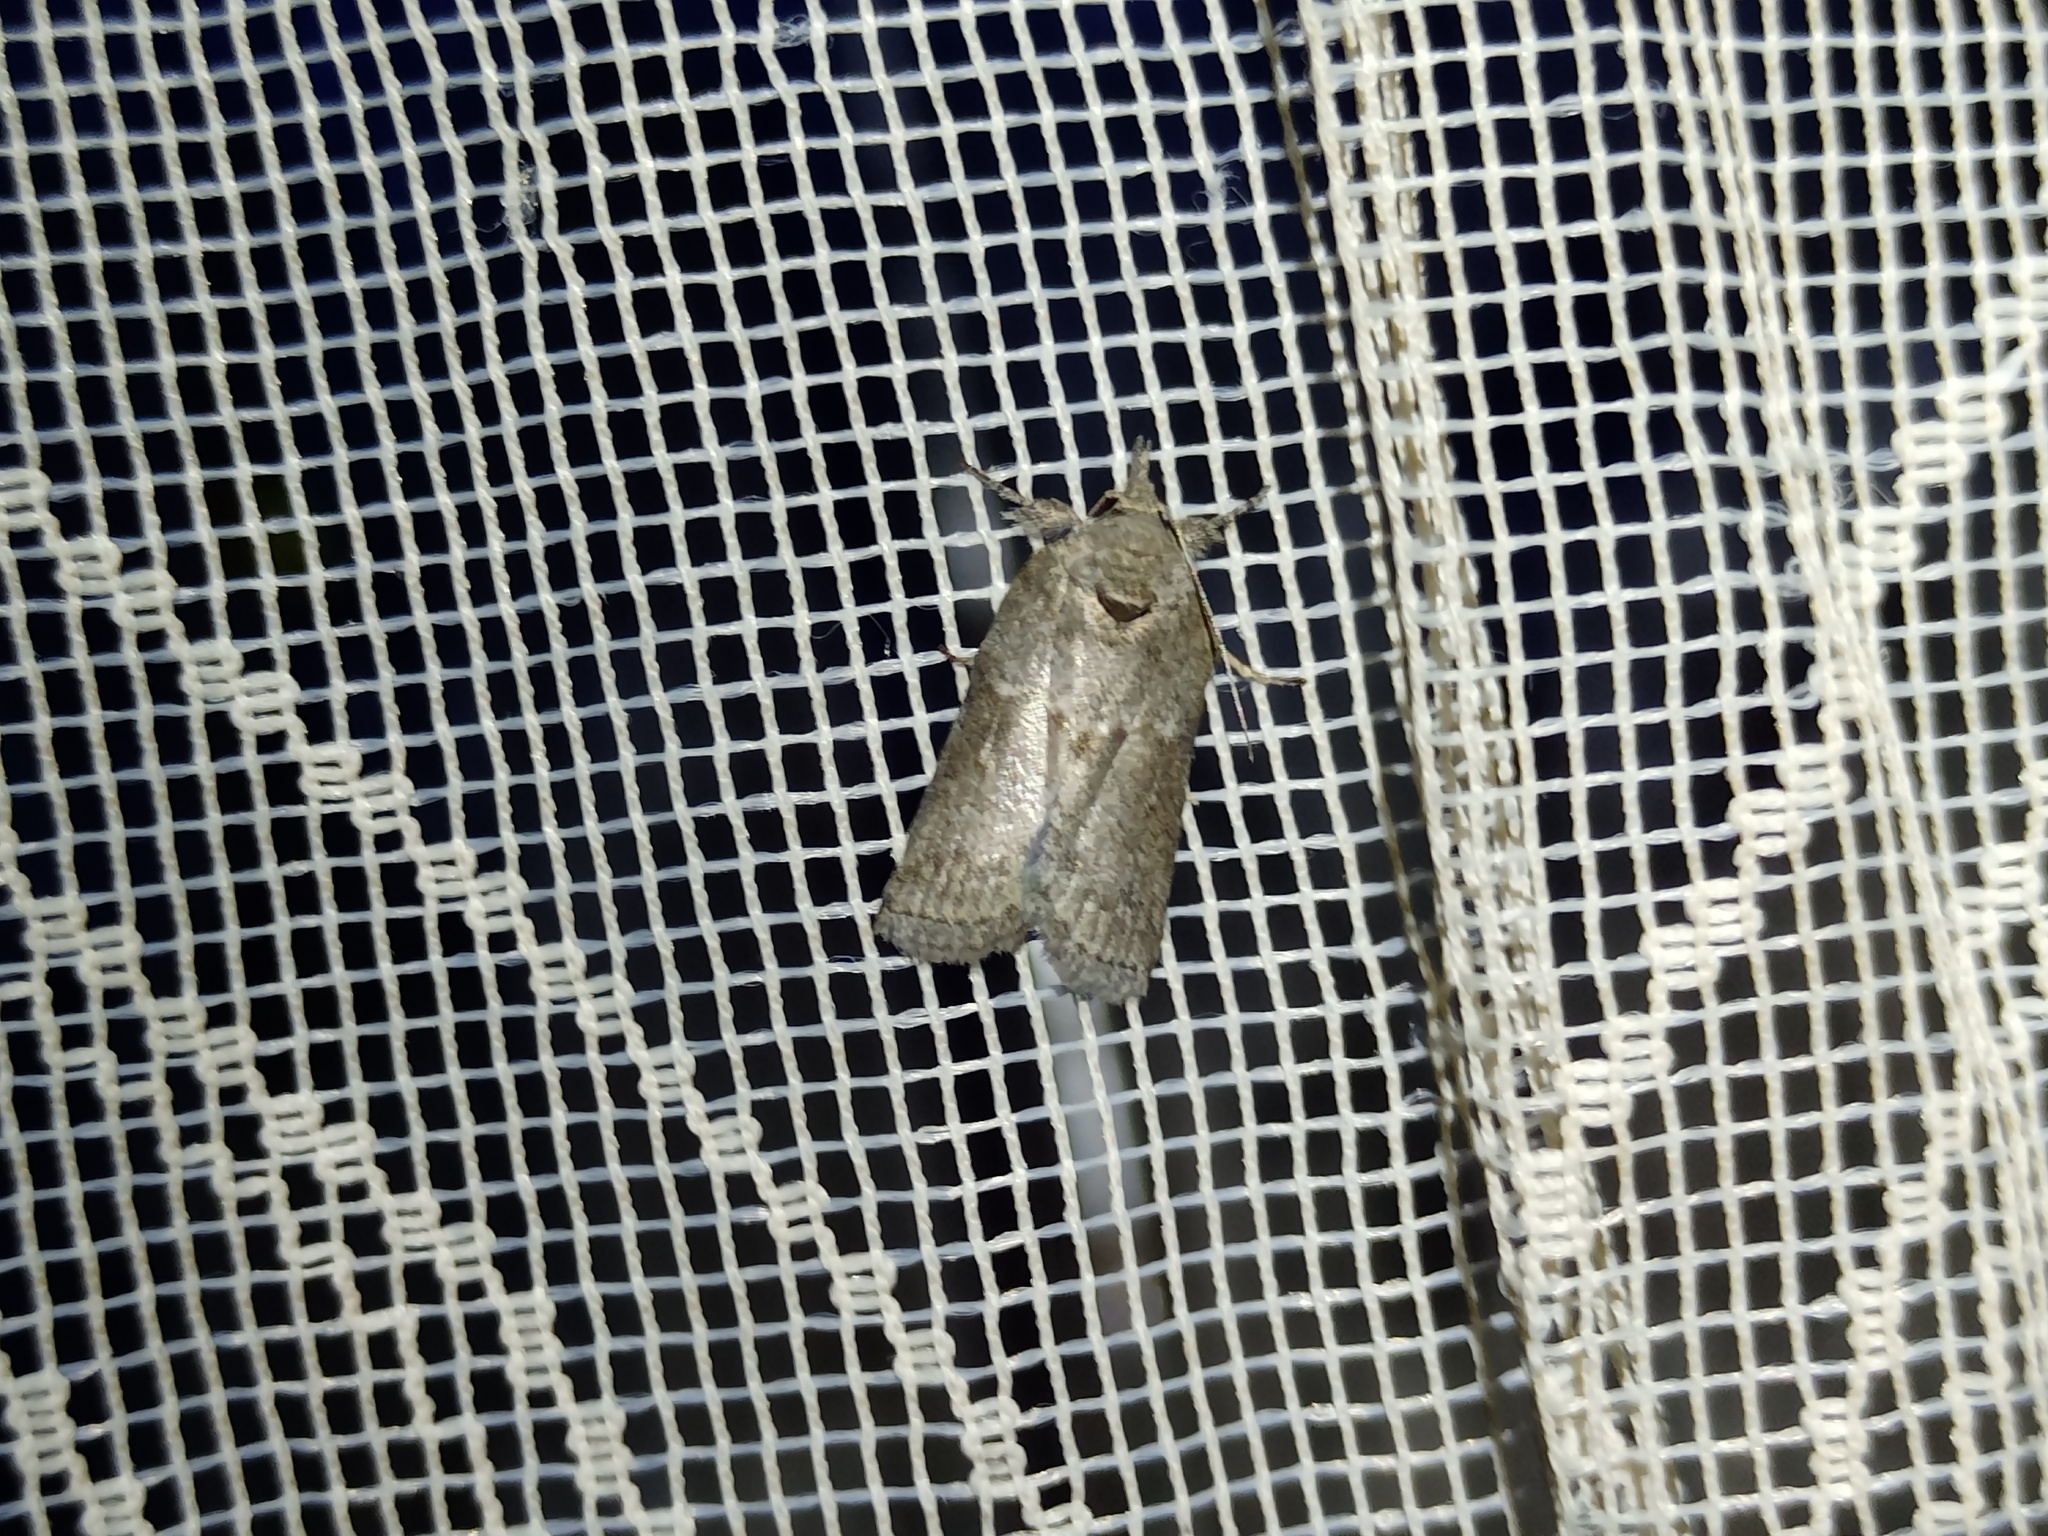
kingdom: Animalia
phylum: Arthropoda
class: Insecta
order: Lepidoptera
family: Nolidae
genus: Nycteola
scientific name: Nycteola revayana
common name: Oak nycteoline
